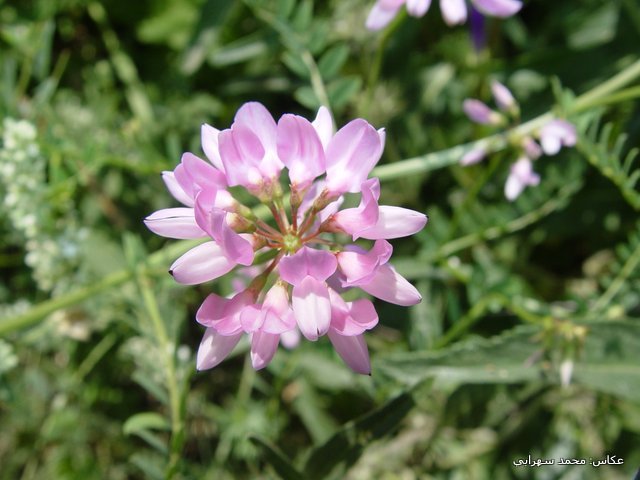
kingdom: Plantae
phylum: Tracheophyta
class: Magnoliopsida
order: Fabales
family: Fabaceae
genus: Coronilla
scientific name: Coronilla varia
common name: Crownvetch
